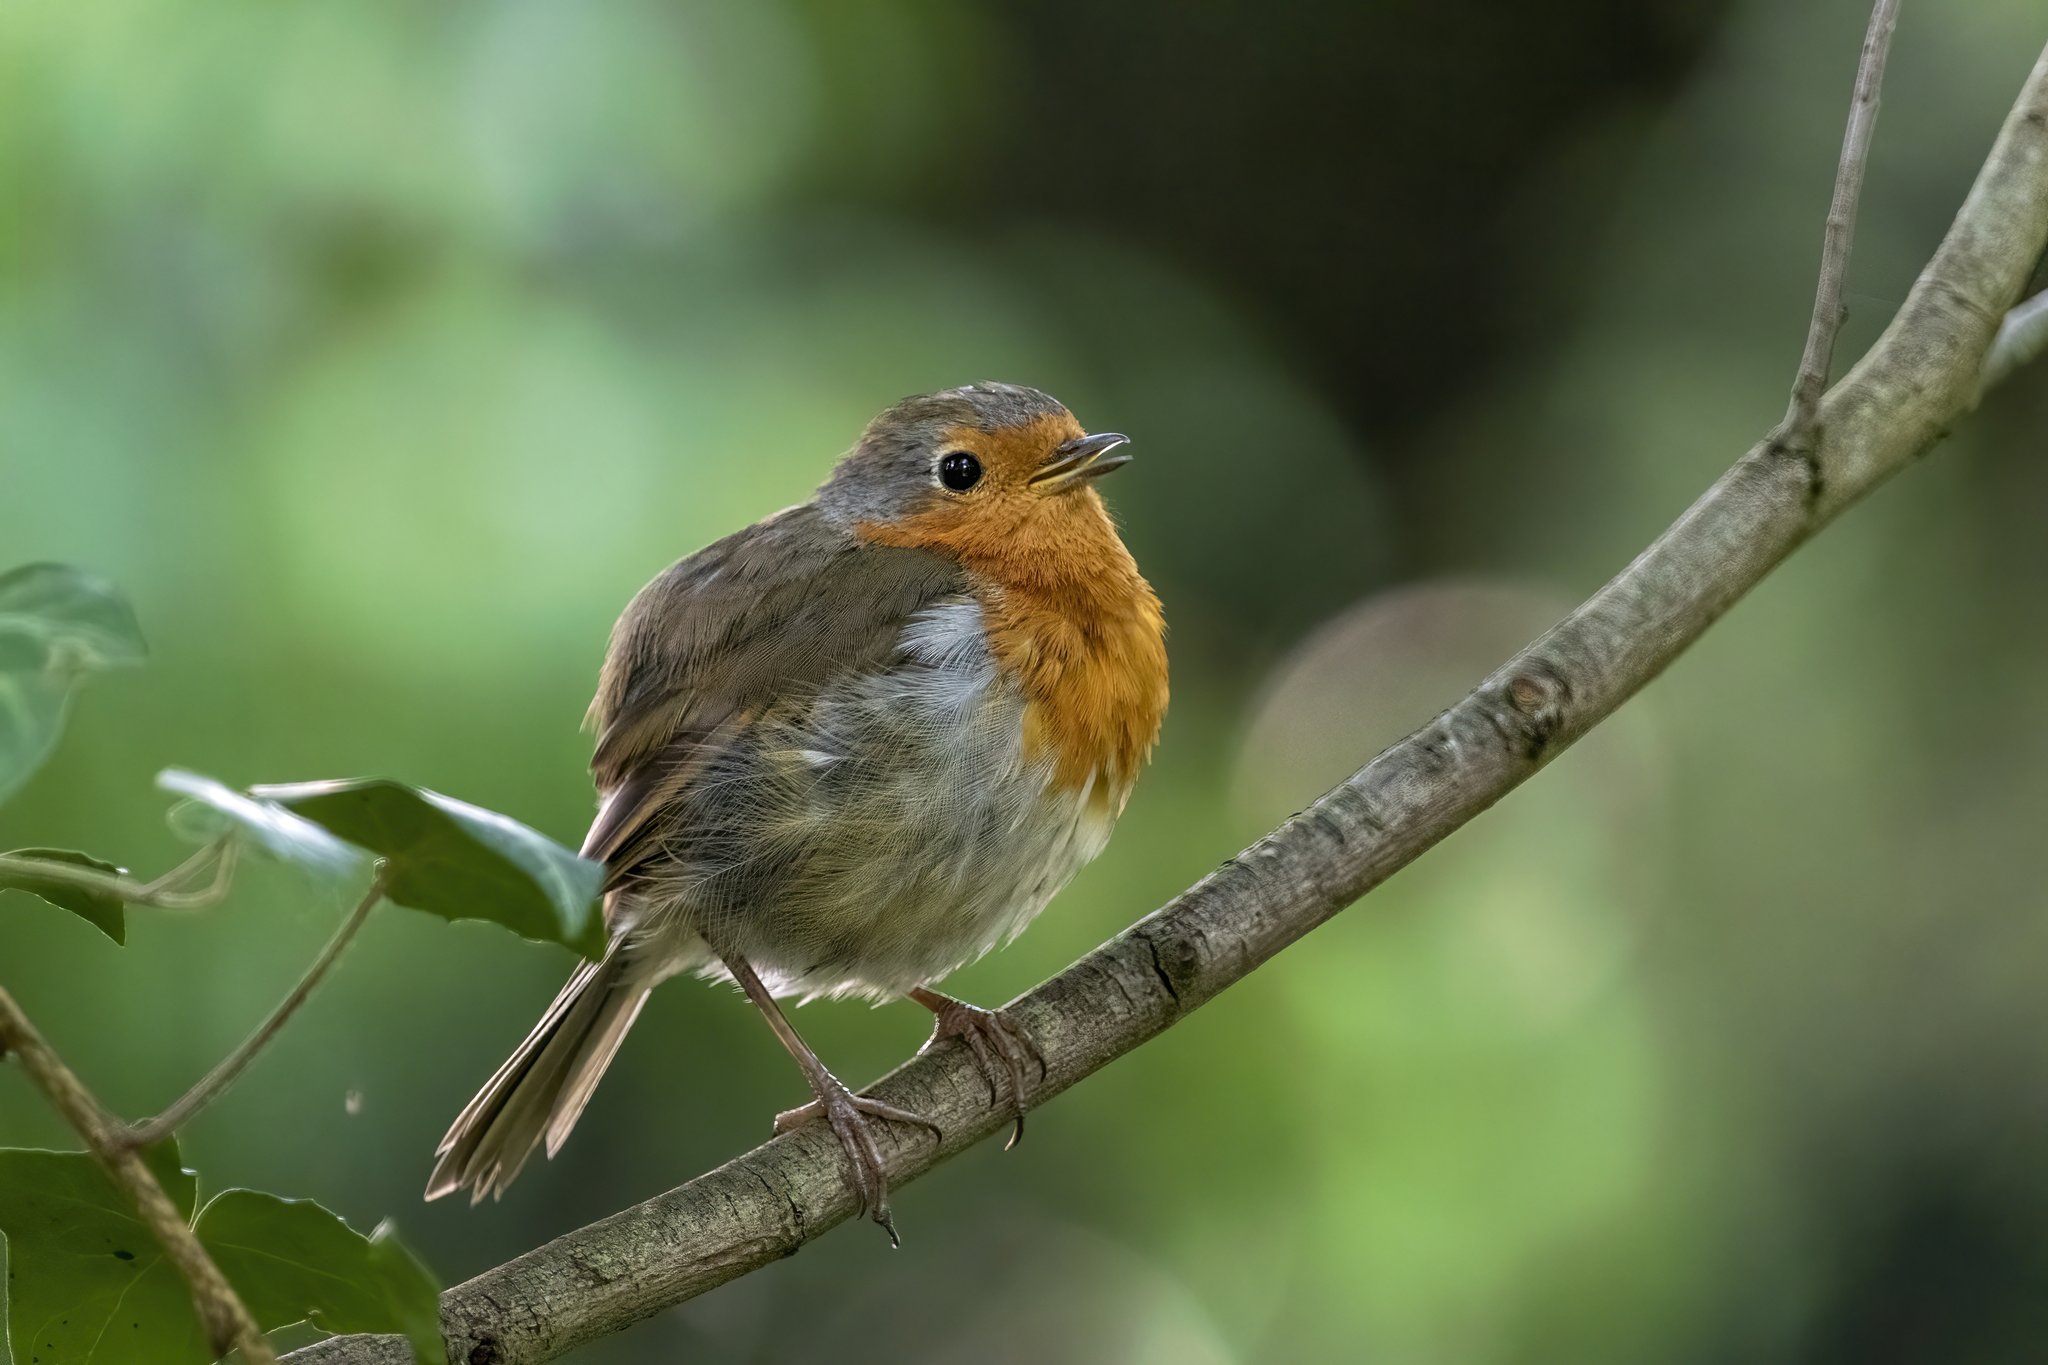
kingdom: Animalia
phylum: Chordata
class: Aves
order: Passeriformes
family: Muscicapidae
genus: Erithacus
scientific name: Erithacus rubecula
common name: European robin
